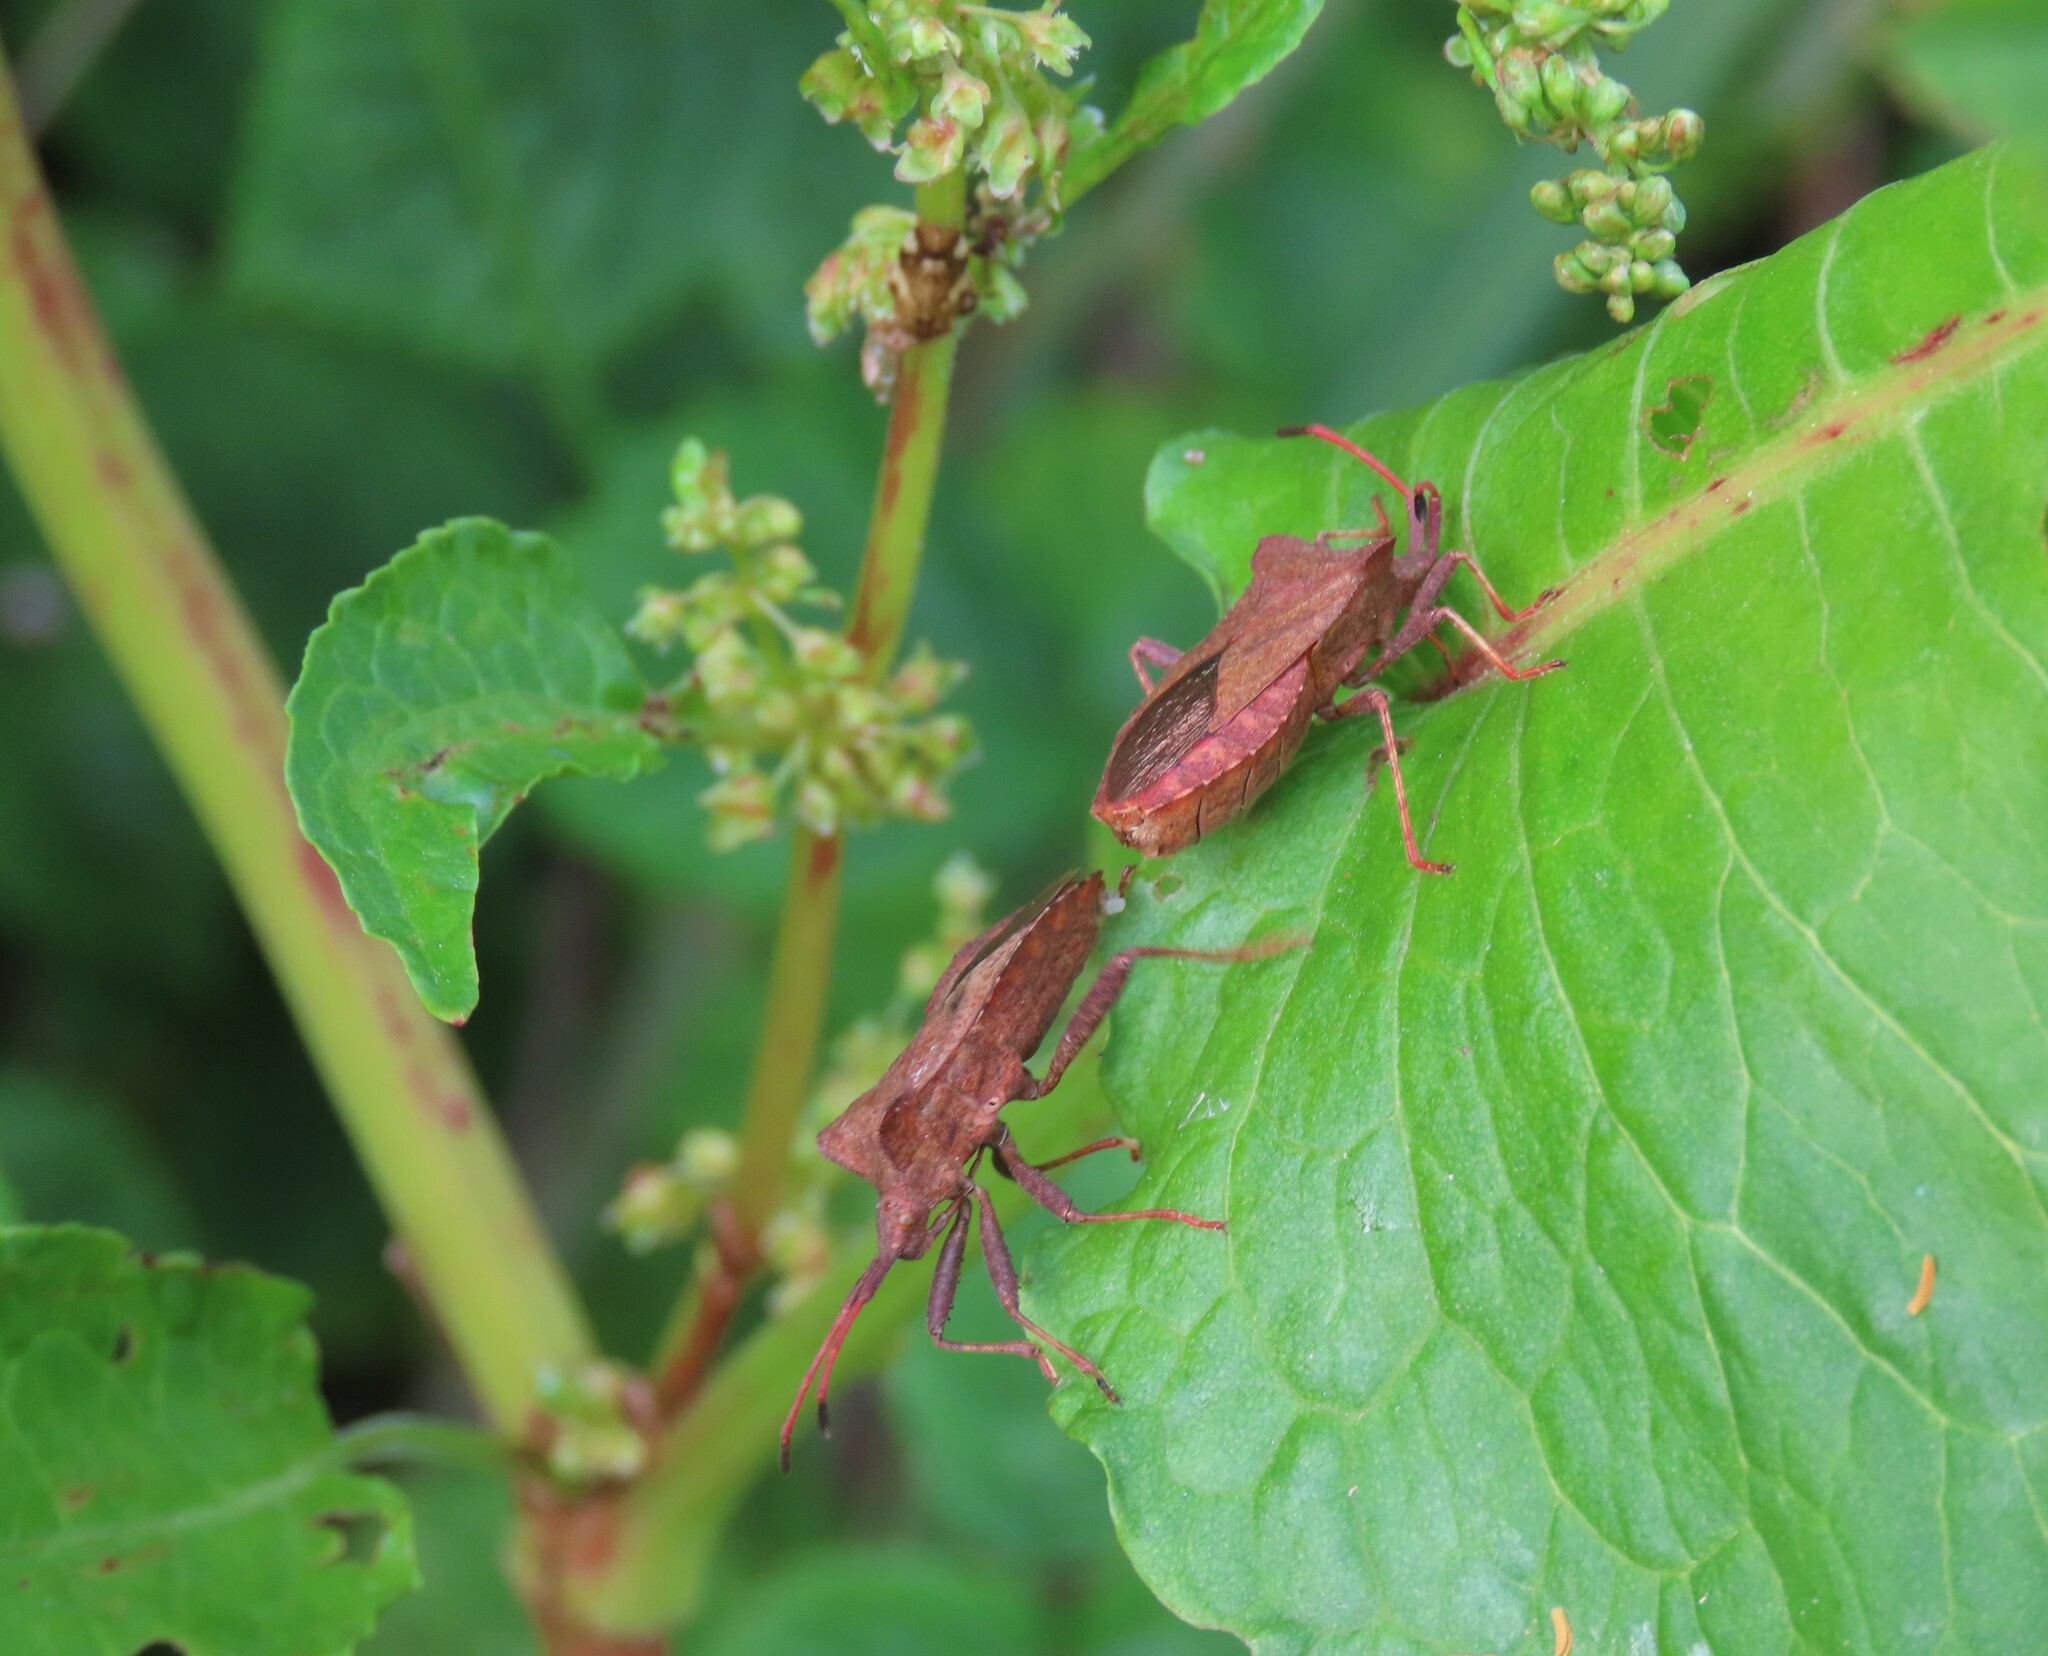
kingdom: Animalia
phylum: Arthropoda
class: Insecta
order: Hemiptera
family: Coreidae
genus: Coreus
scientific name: Coreus marginatus
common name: Dock bug
